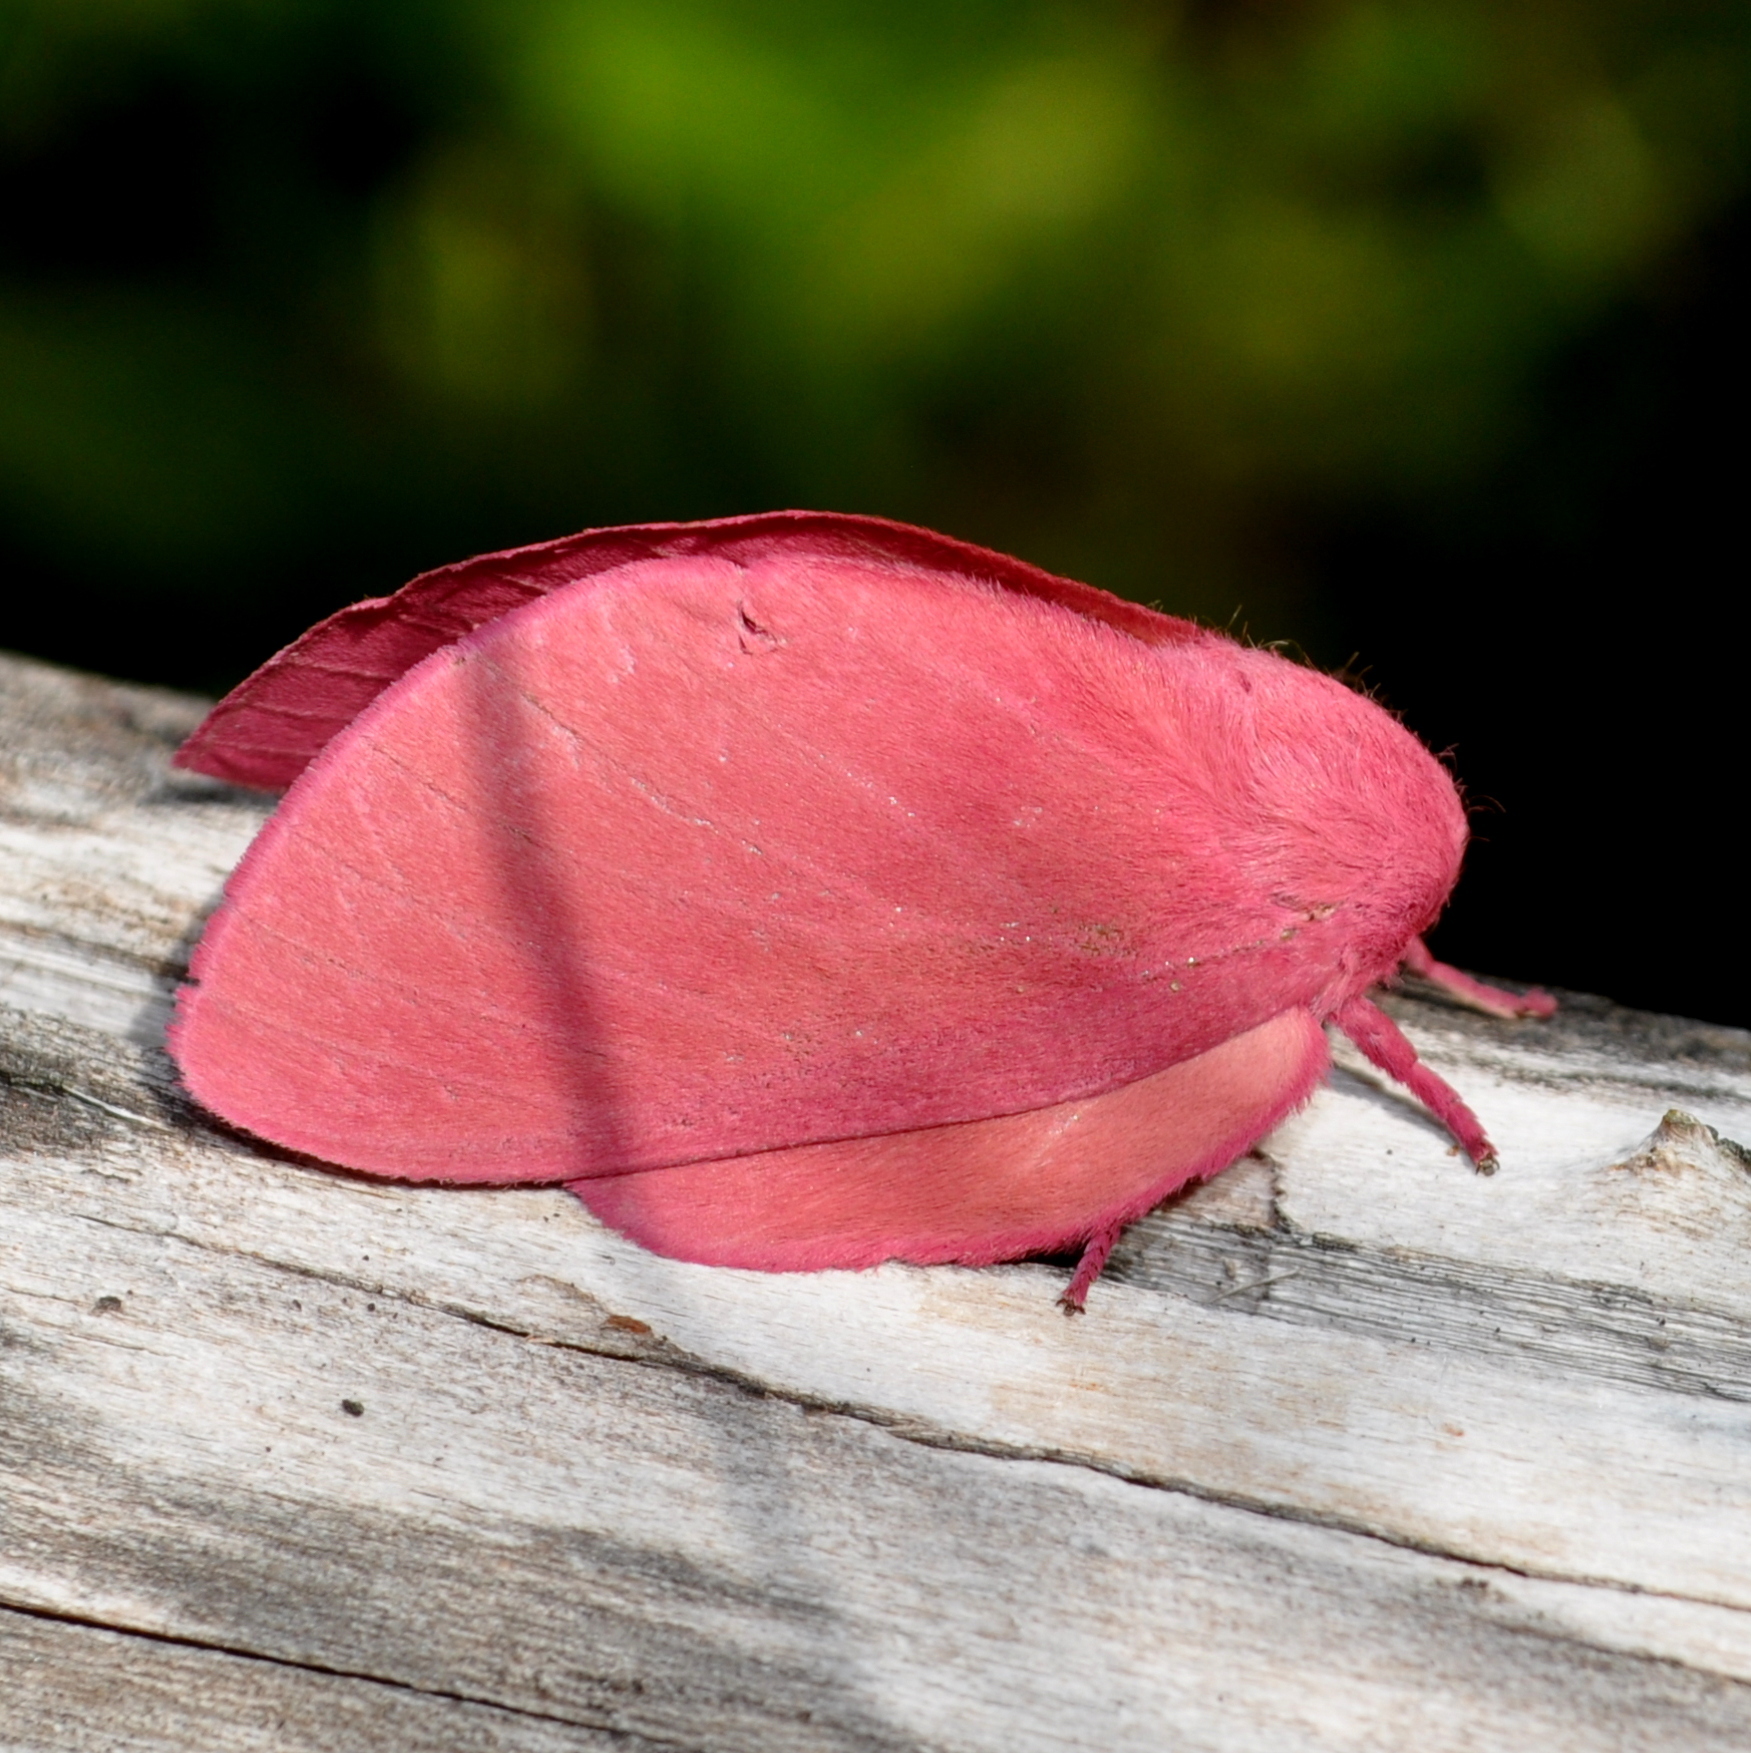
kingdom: Animalia
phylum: Arthropoda
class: Insecta
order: Lepidoptera
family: Saturniidae
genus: Psilopygida
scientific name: Psilopygida walkeri
